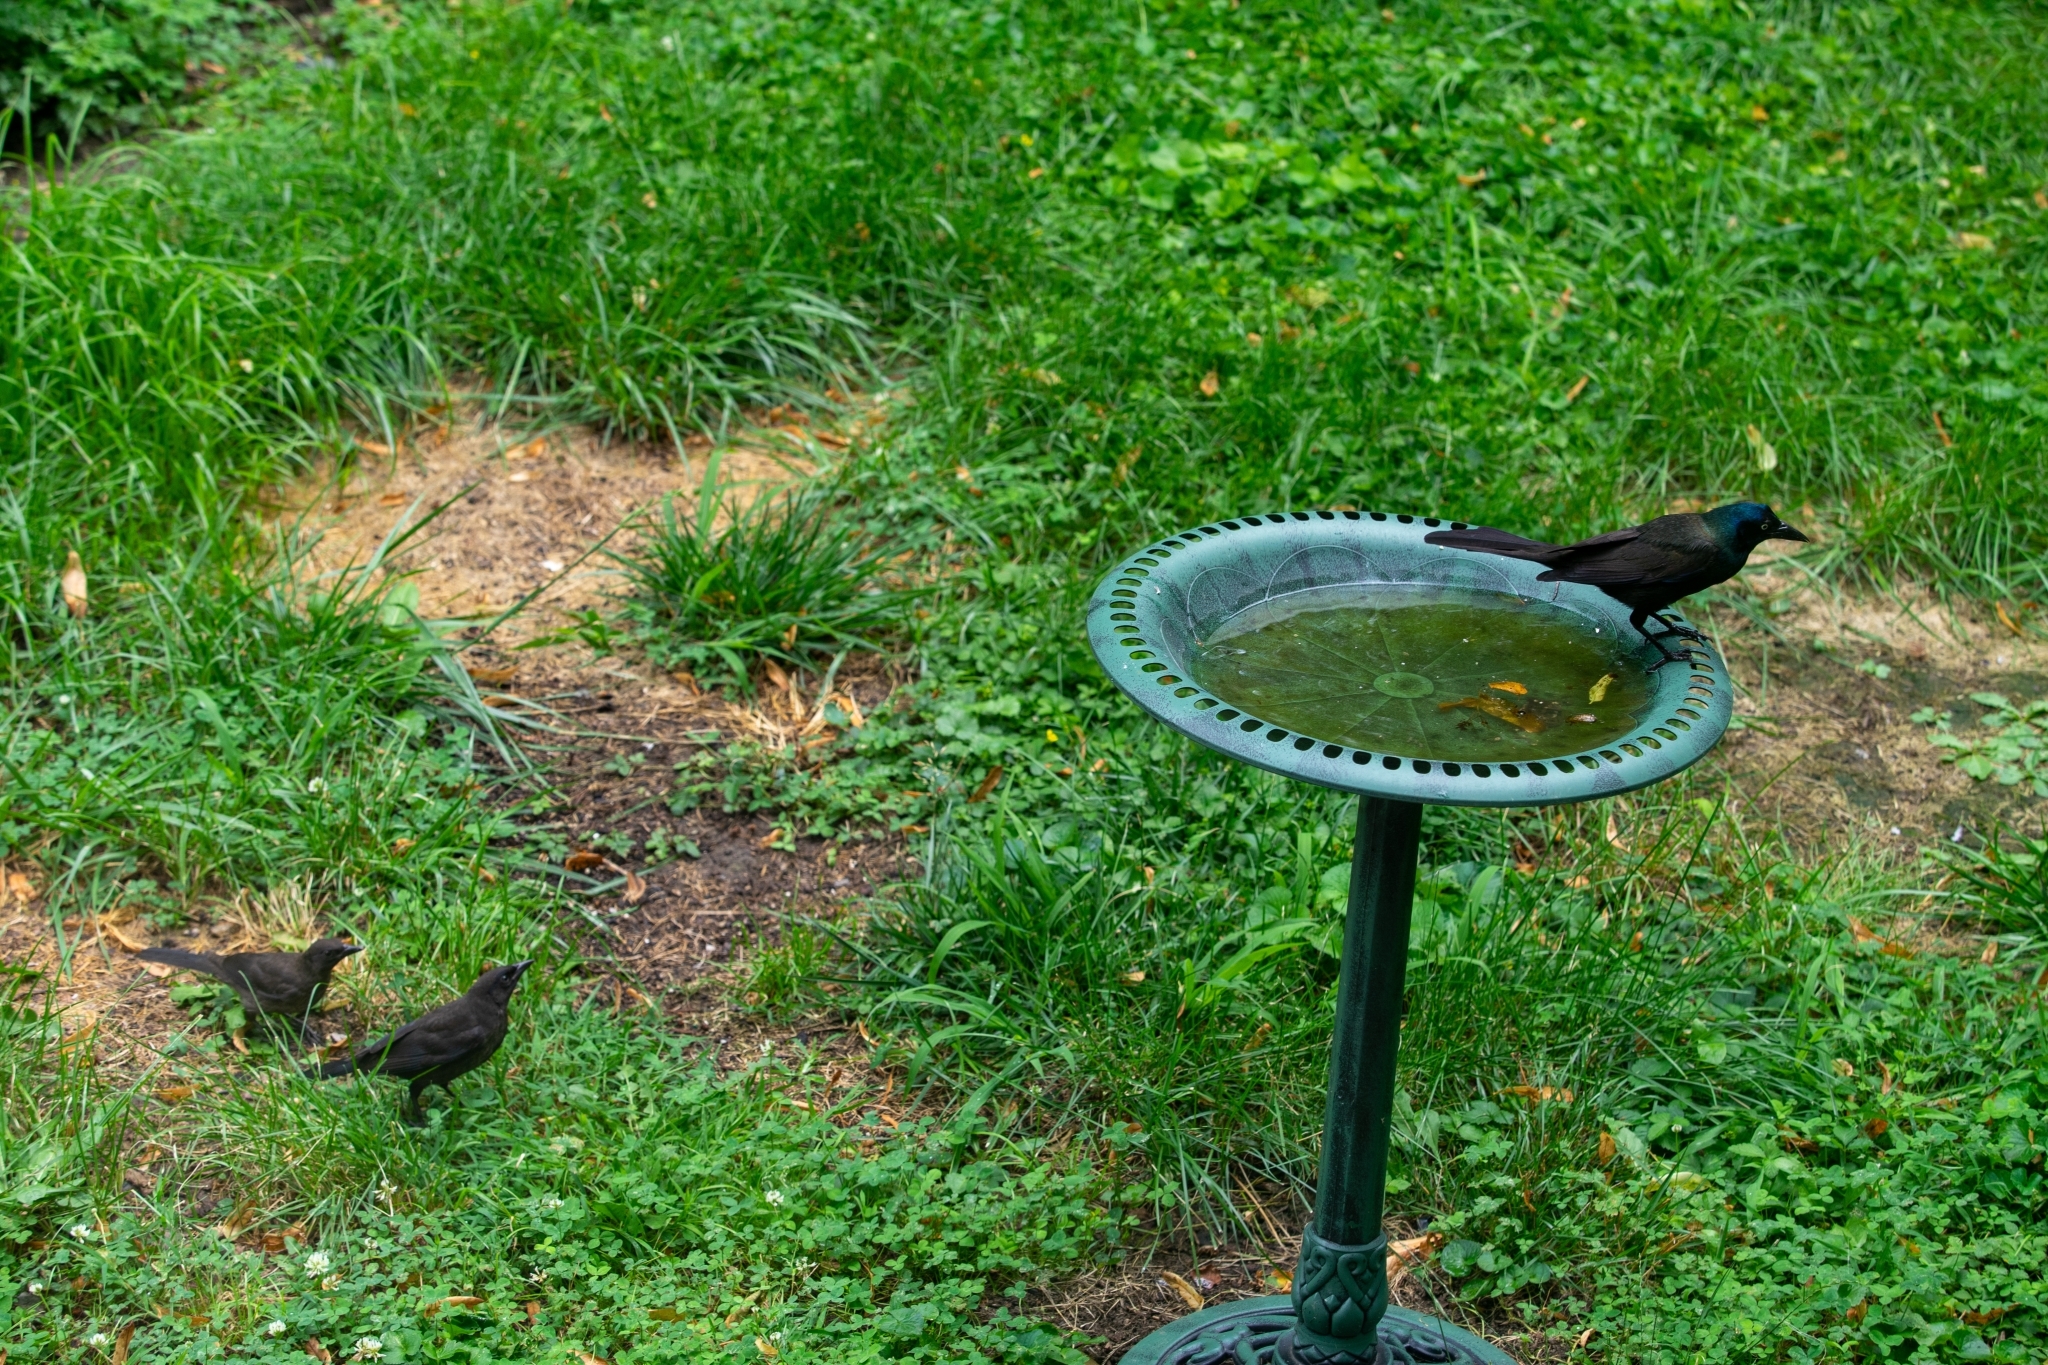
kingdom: Animalia
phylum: Chordata
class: Aves
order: Passeriformes
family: Icteridae
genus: Quiscalus
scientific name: Quiscalus quiscula
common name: Common grackle
